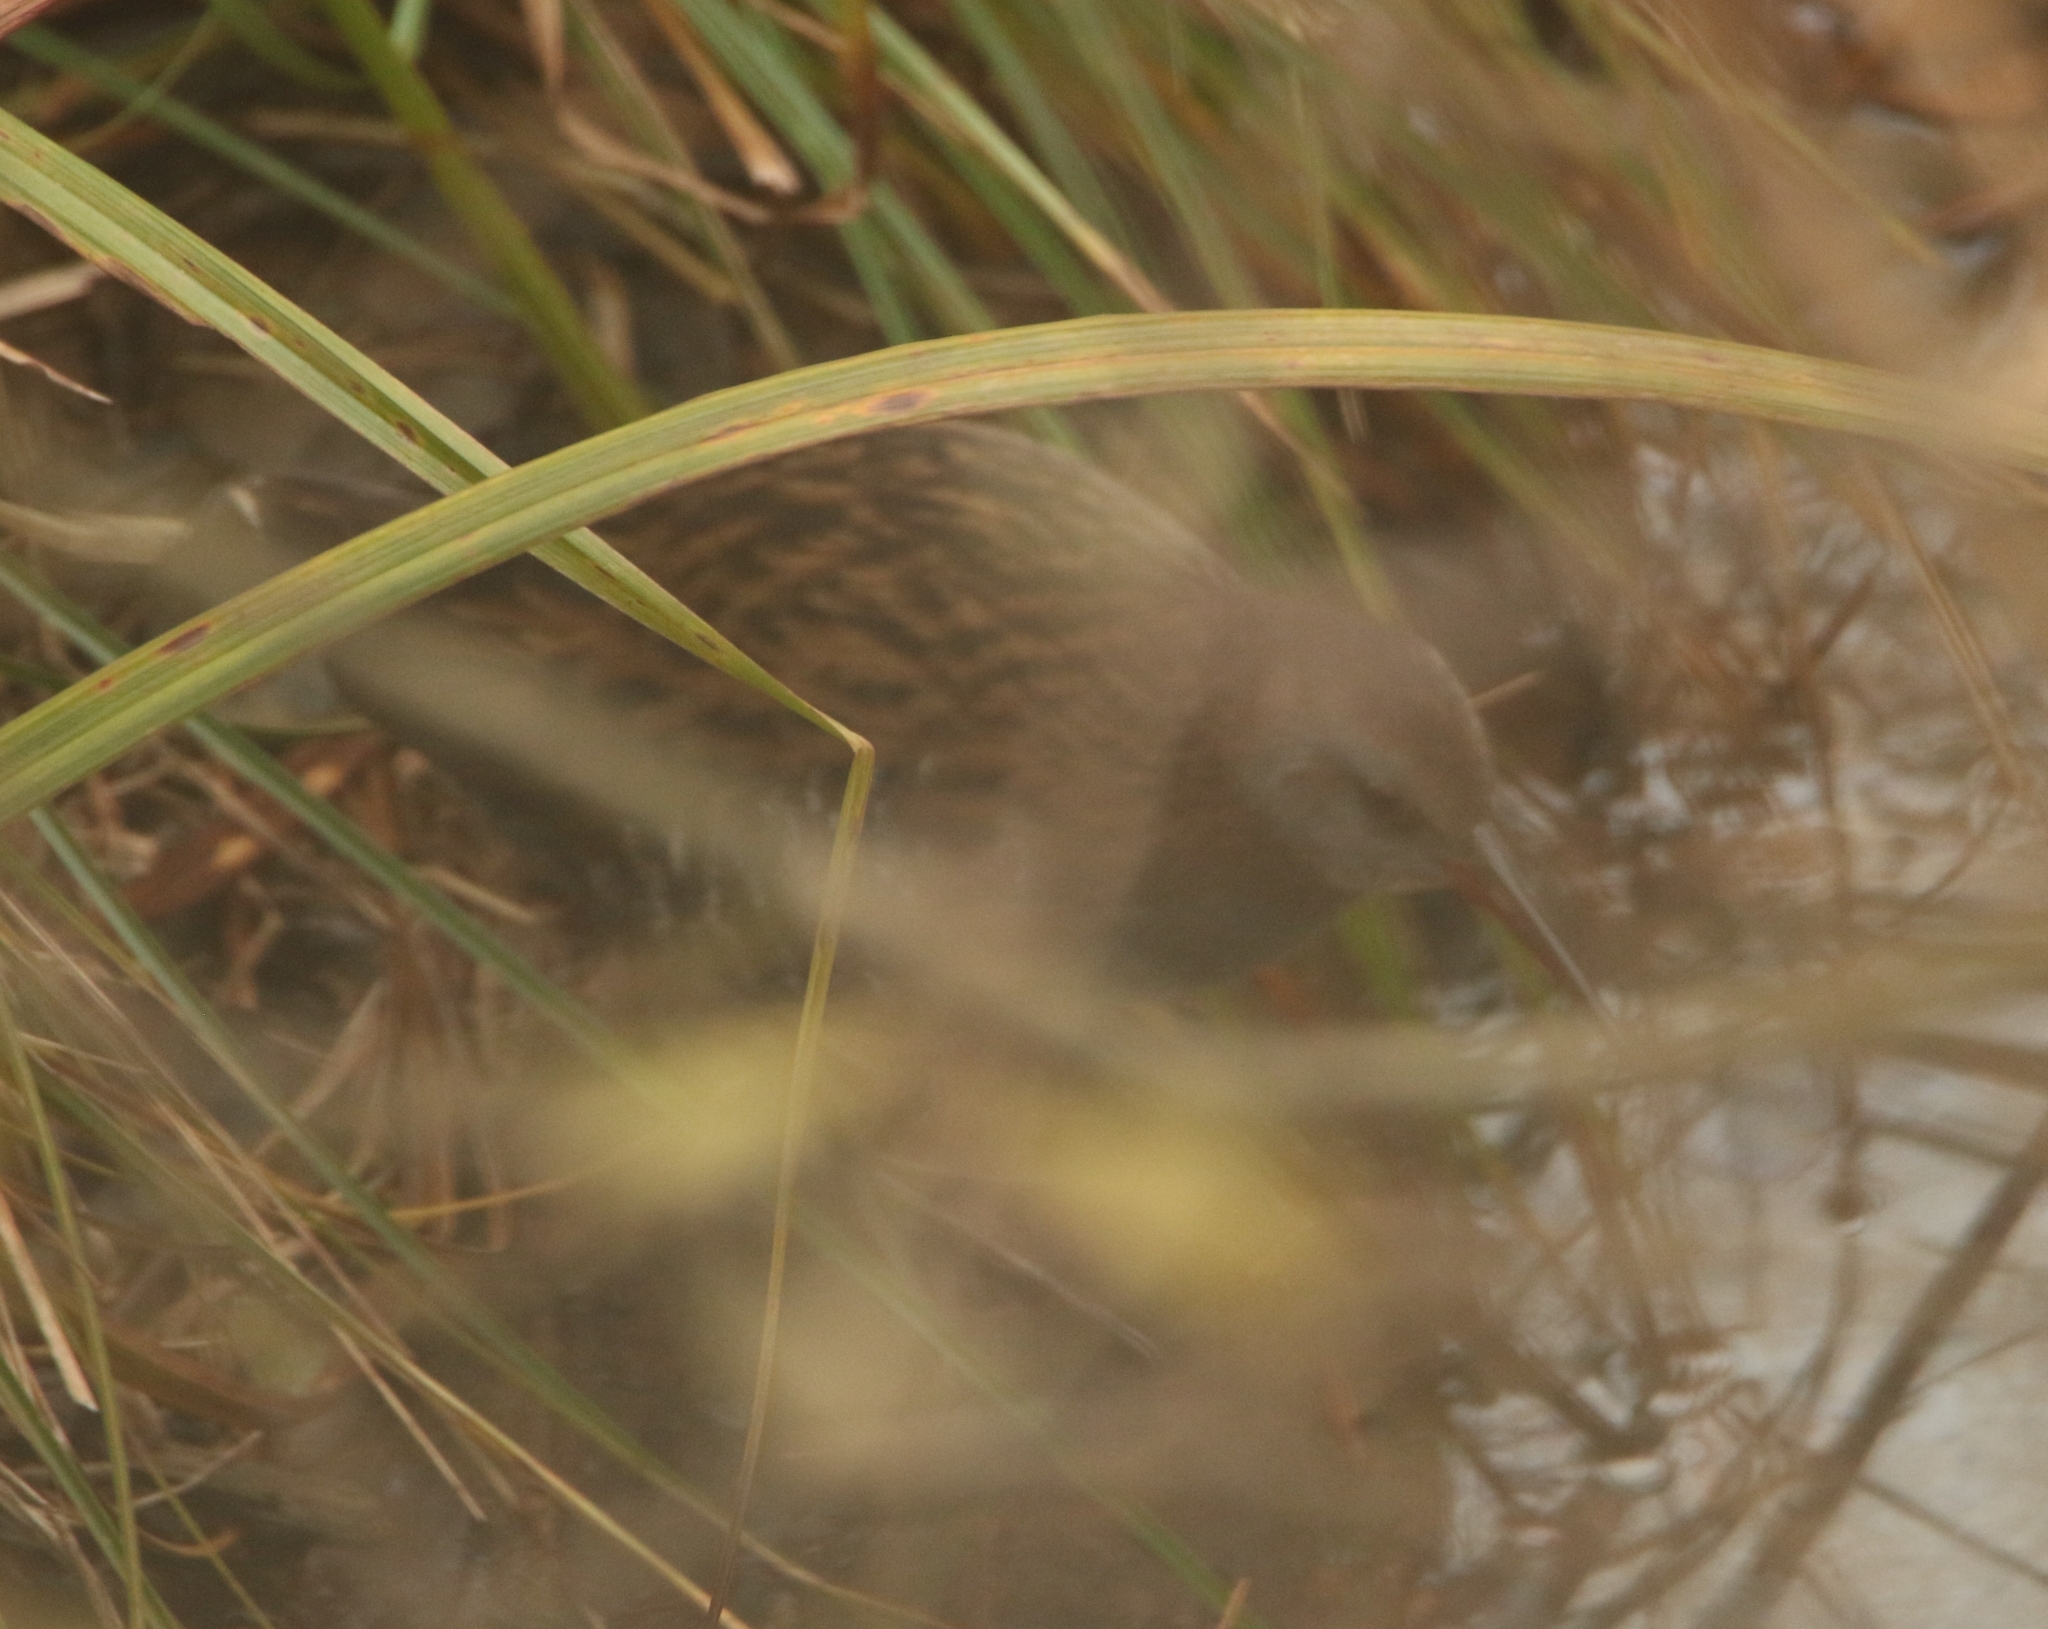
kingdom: Animalia
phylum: Chordata
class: Aves
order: Gruiformes
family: Rallidae
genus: Rallus
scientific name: Rallus aquaticus
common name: Water rail
